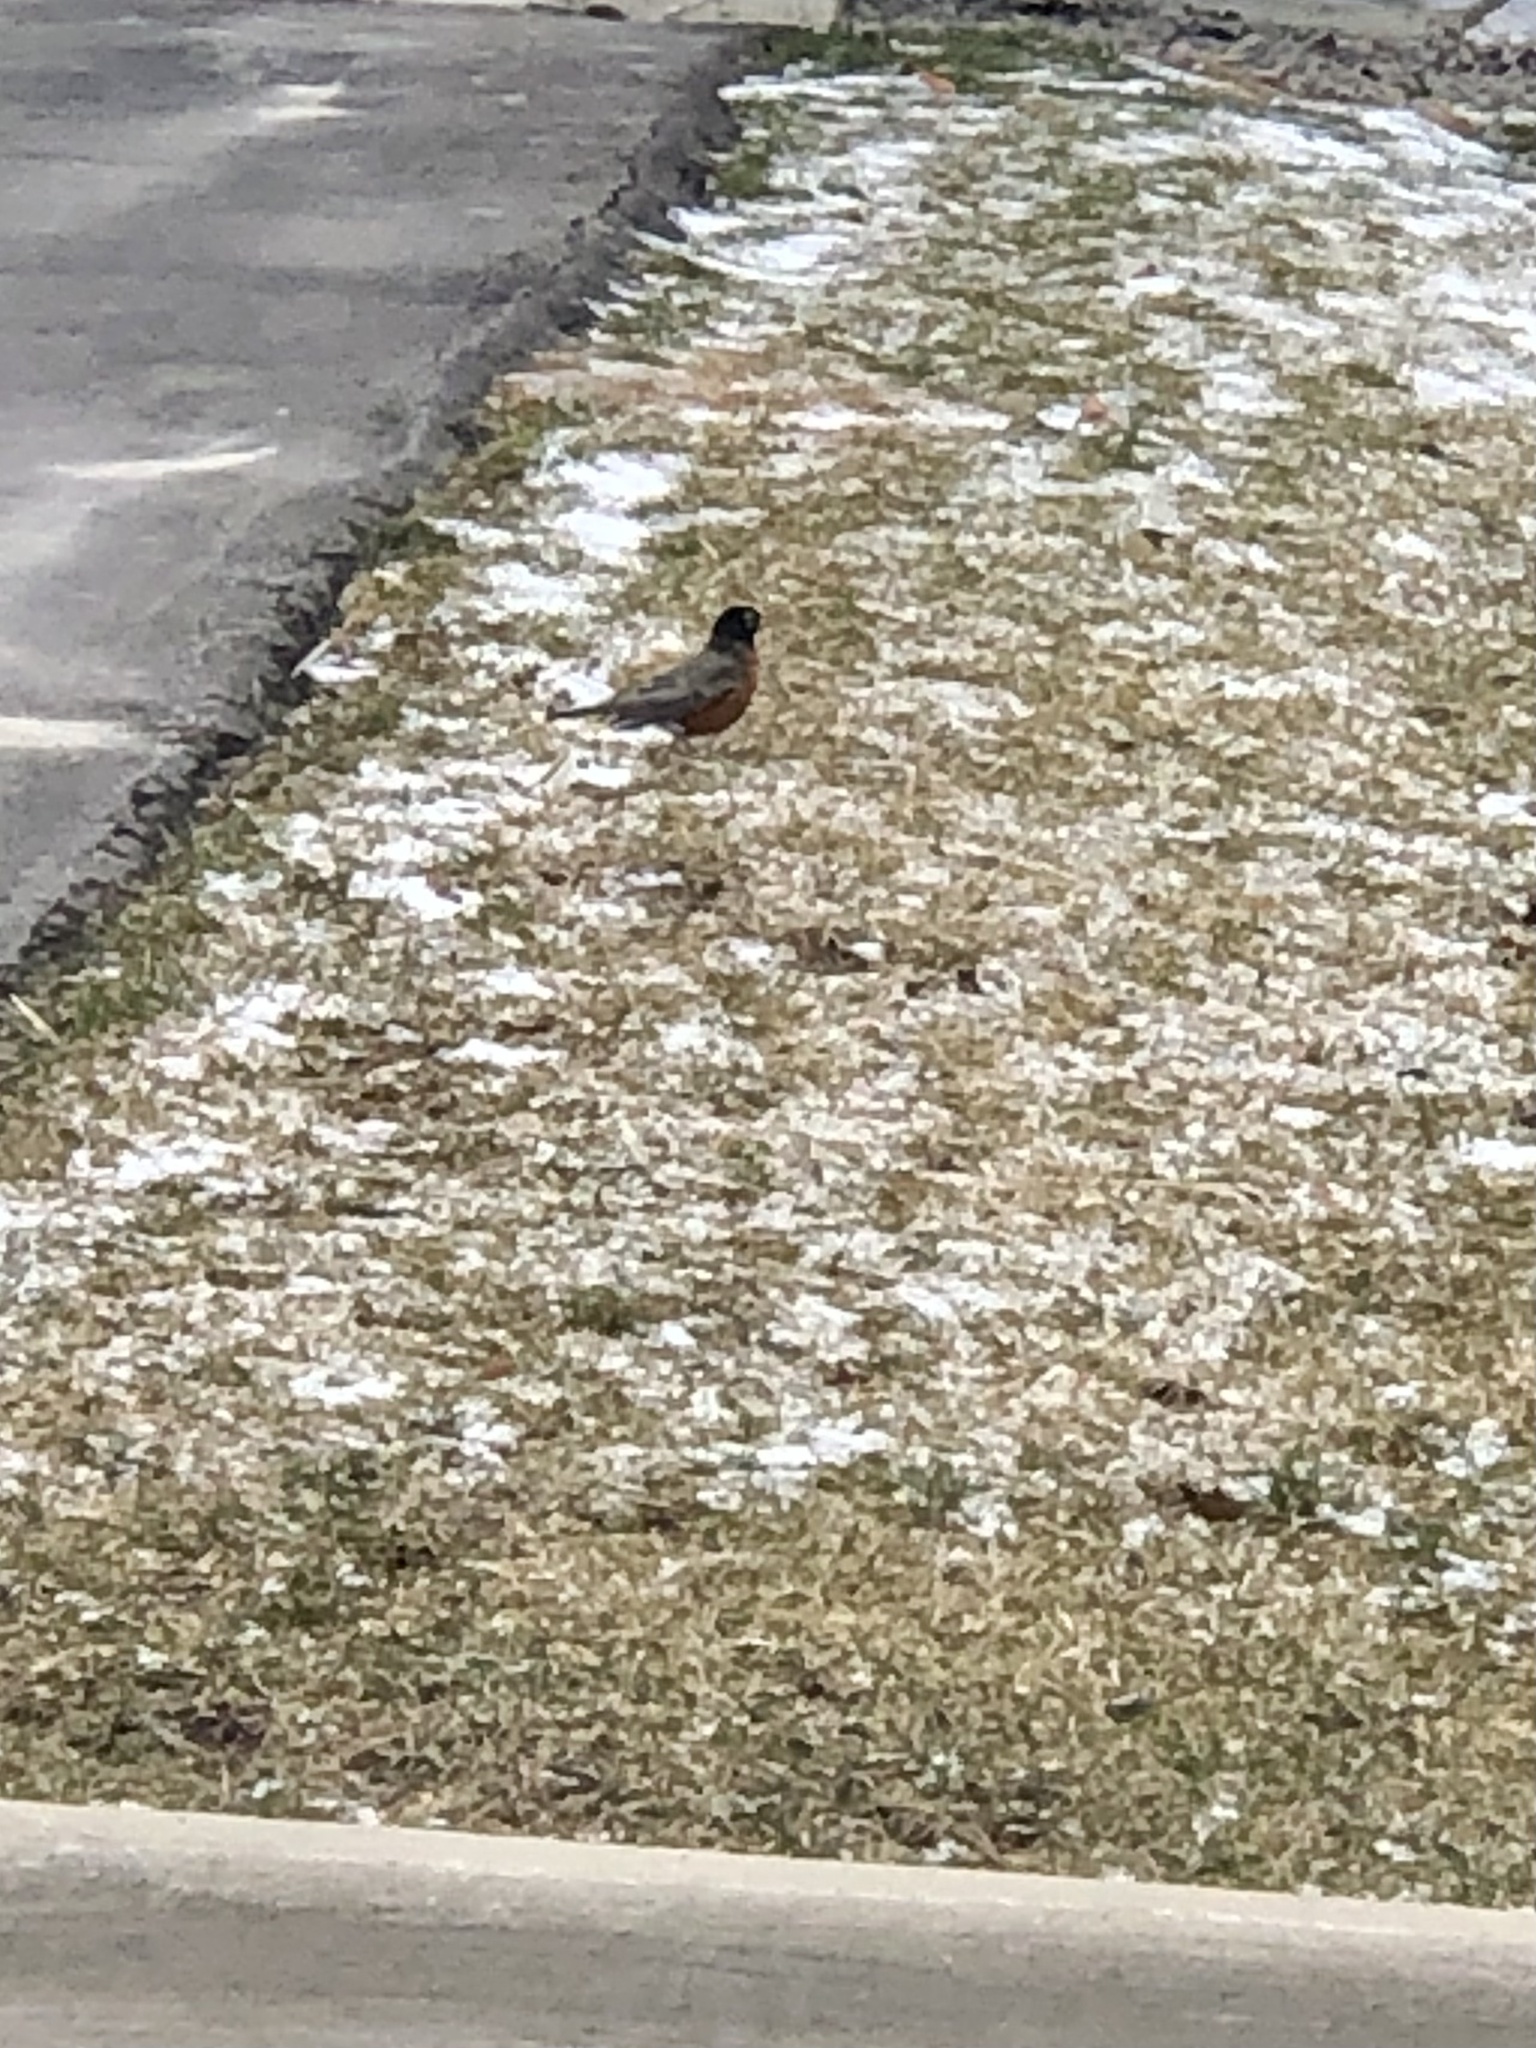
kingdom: Animalia
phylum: Chordata
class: Aves
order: Passeriformes
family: Turdidae
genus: Turdus
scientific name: Turdus migratorius
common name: American robin
